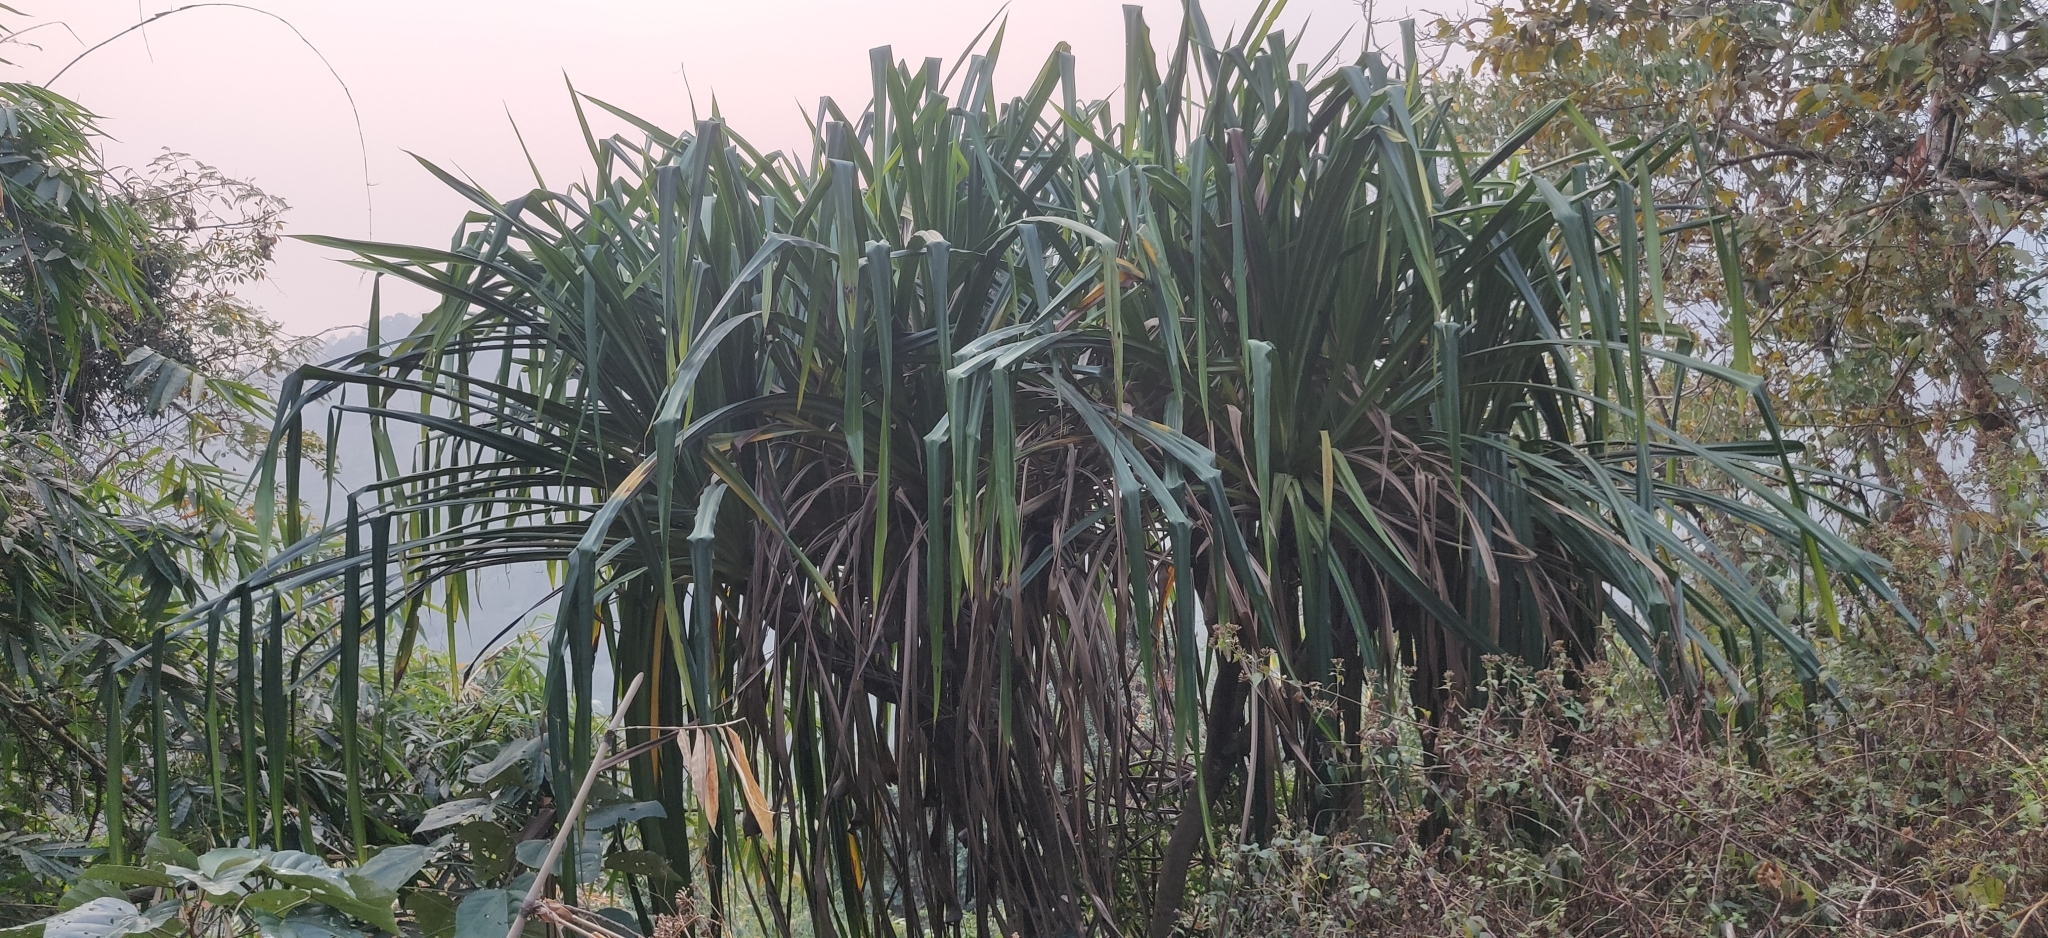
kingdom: Plantae
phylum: Tracheophyta
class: Liliopsida
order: Pandanales
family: Pandanaceae
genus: Pandanus
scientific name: Pandanus furcatus
